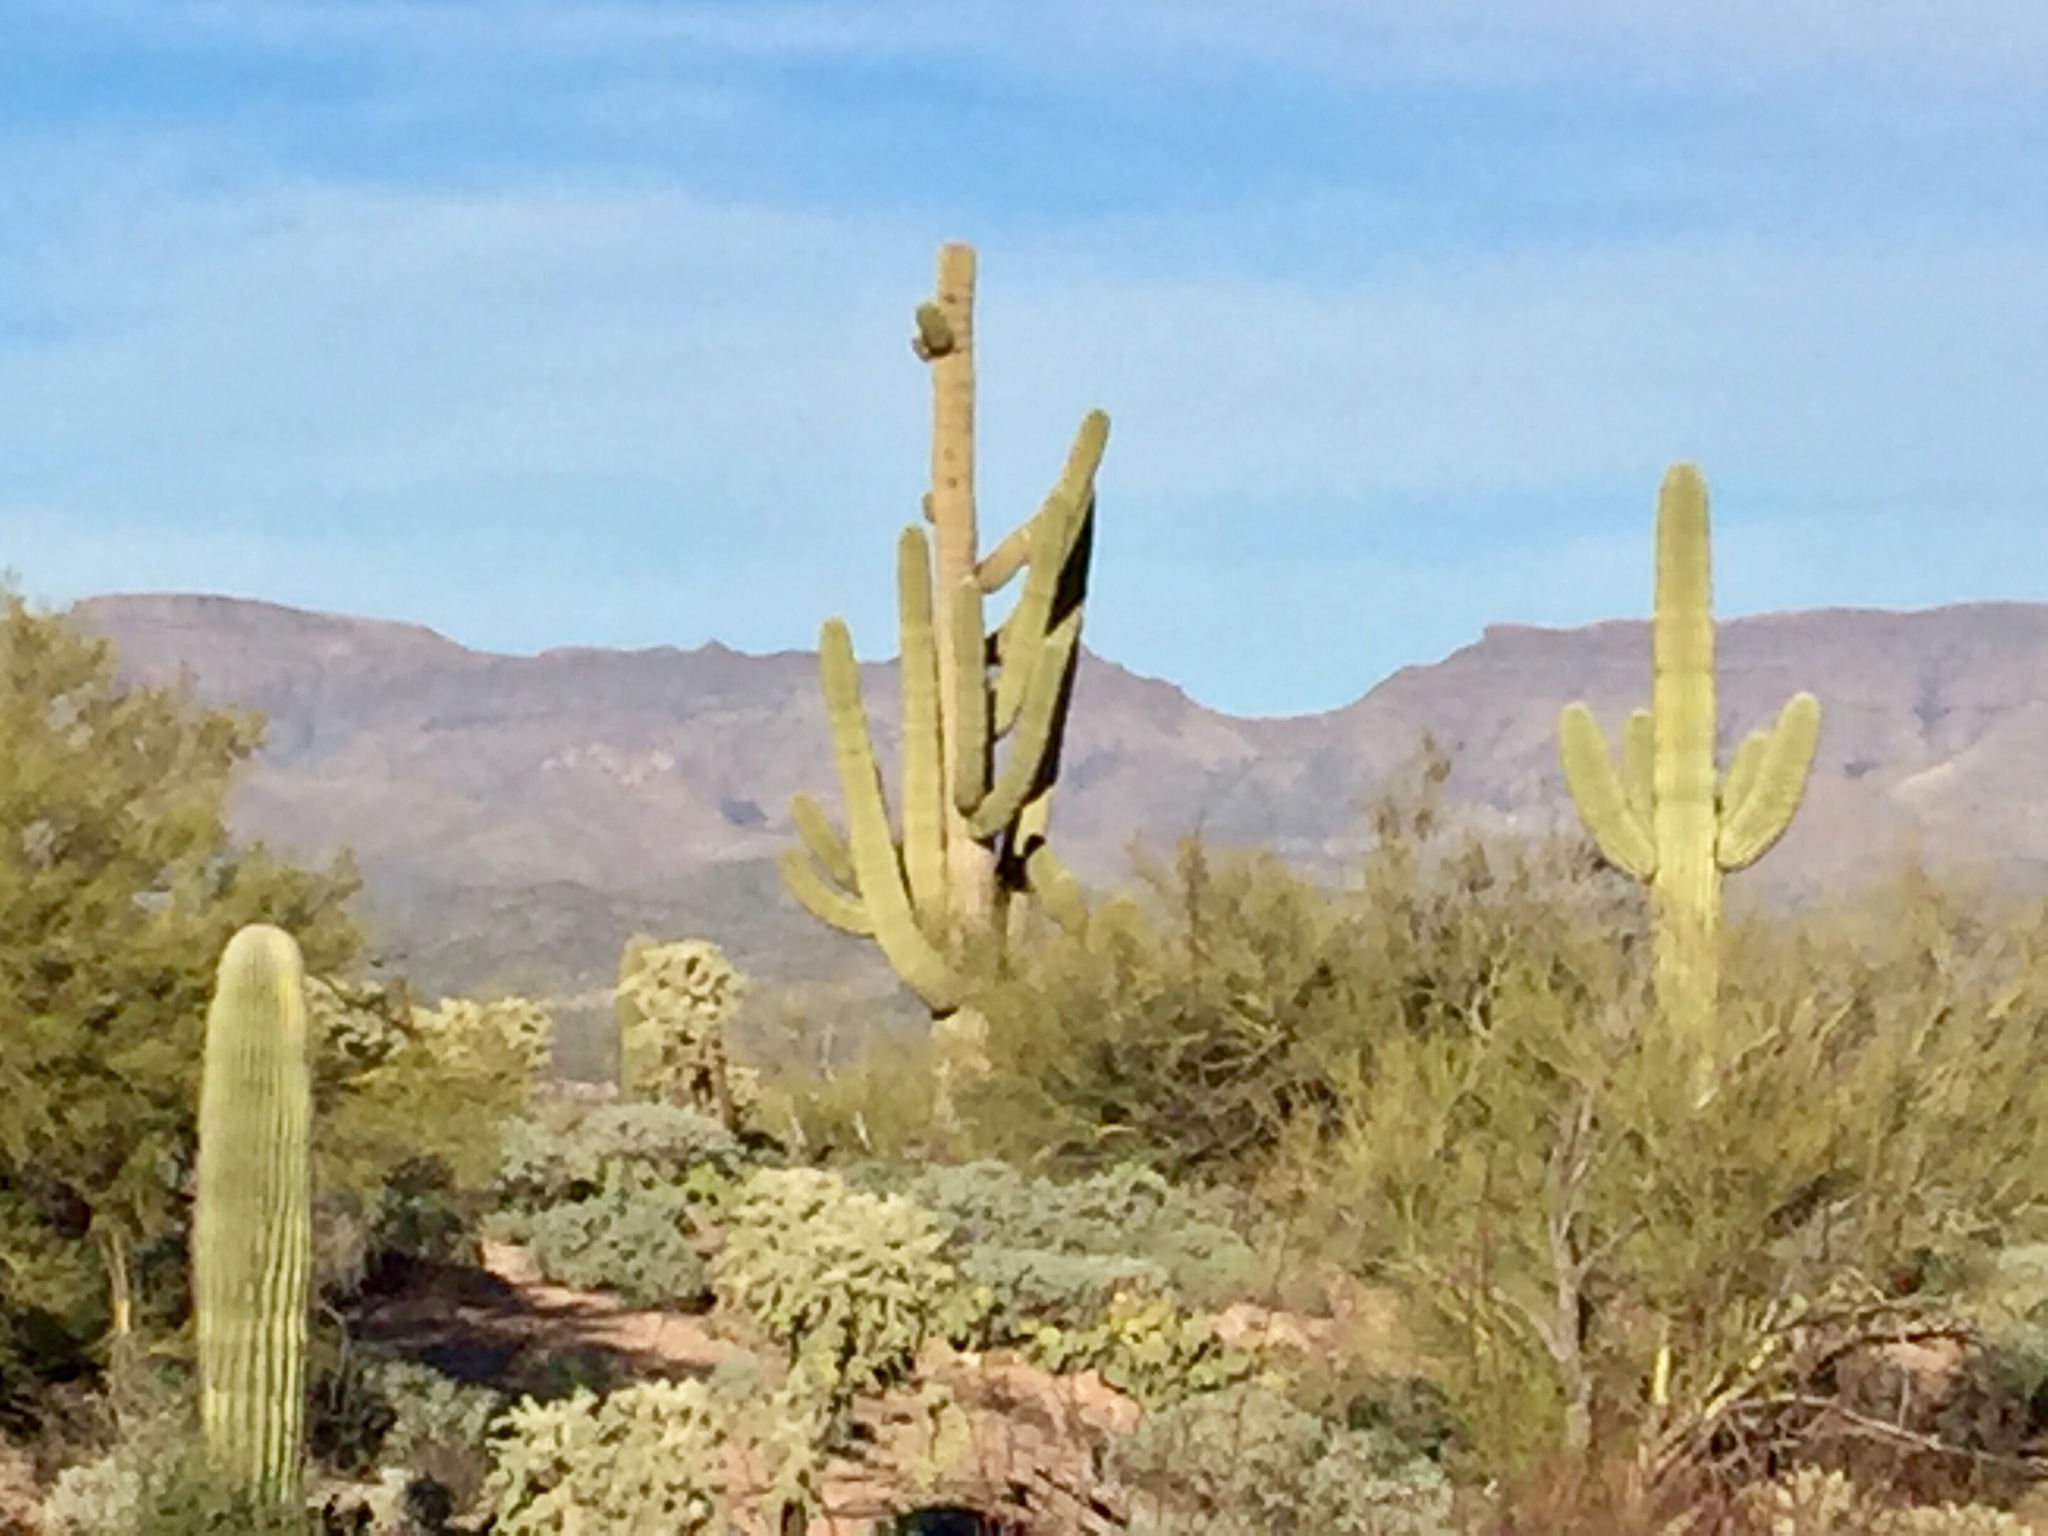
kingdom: Plantae
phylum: Tracheophyta
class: Magnoliopsida
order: Caryophyllales
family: Cactaceae
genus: Carnegiea
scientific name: Carnegiea gigantea
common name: Saguaro
